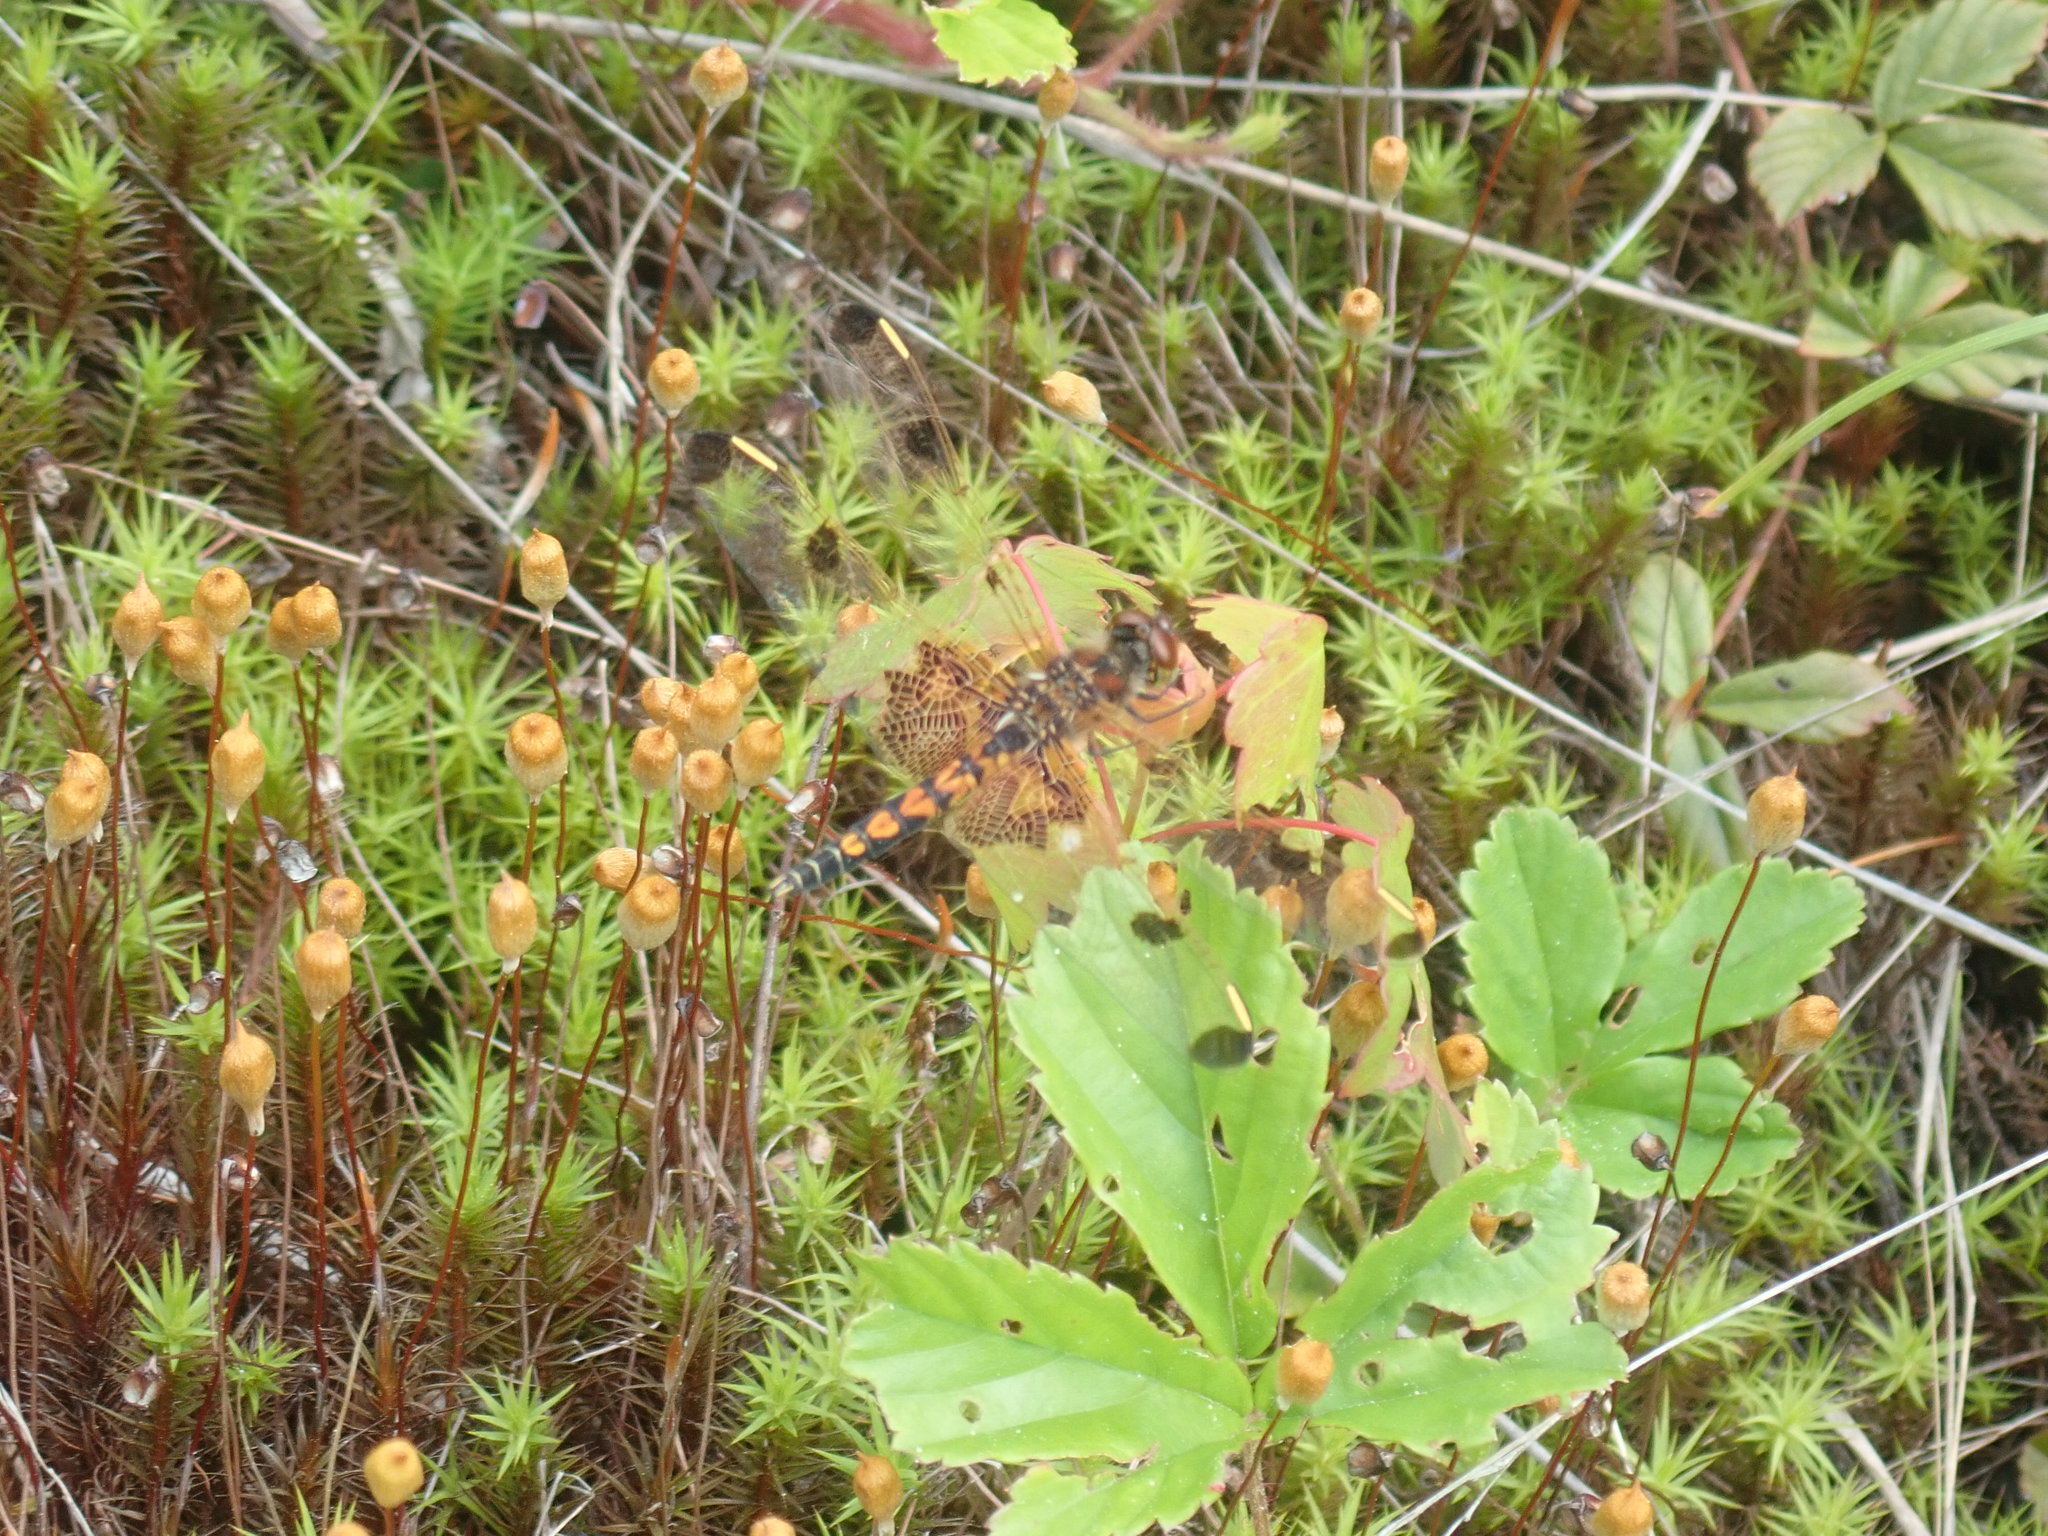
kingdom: Animalia
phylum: Arthropoda
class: Insecta
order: Odonata
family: Libellulidae
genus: Celithemis
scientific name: Celithemis elisa
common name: Calico pennant
